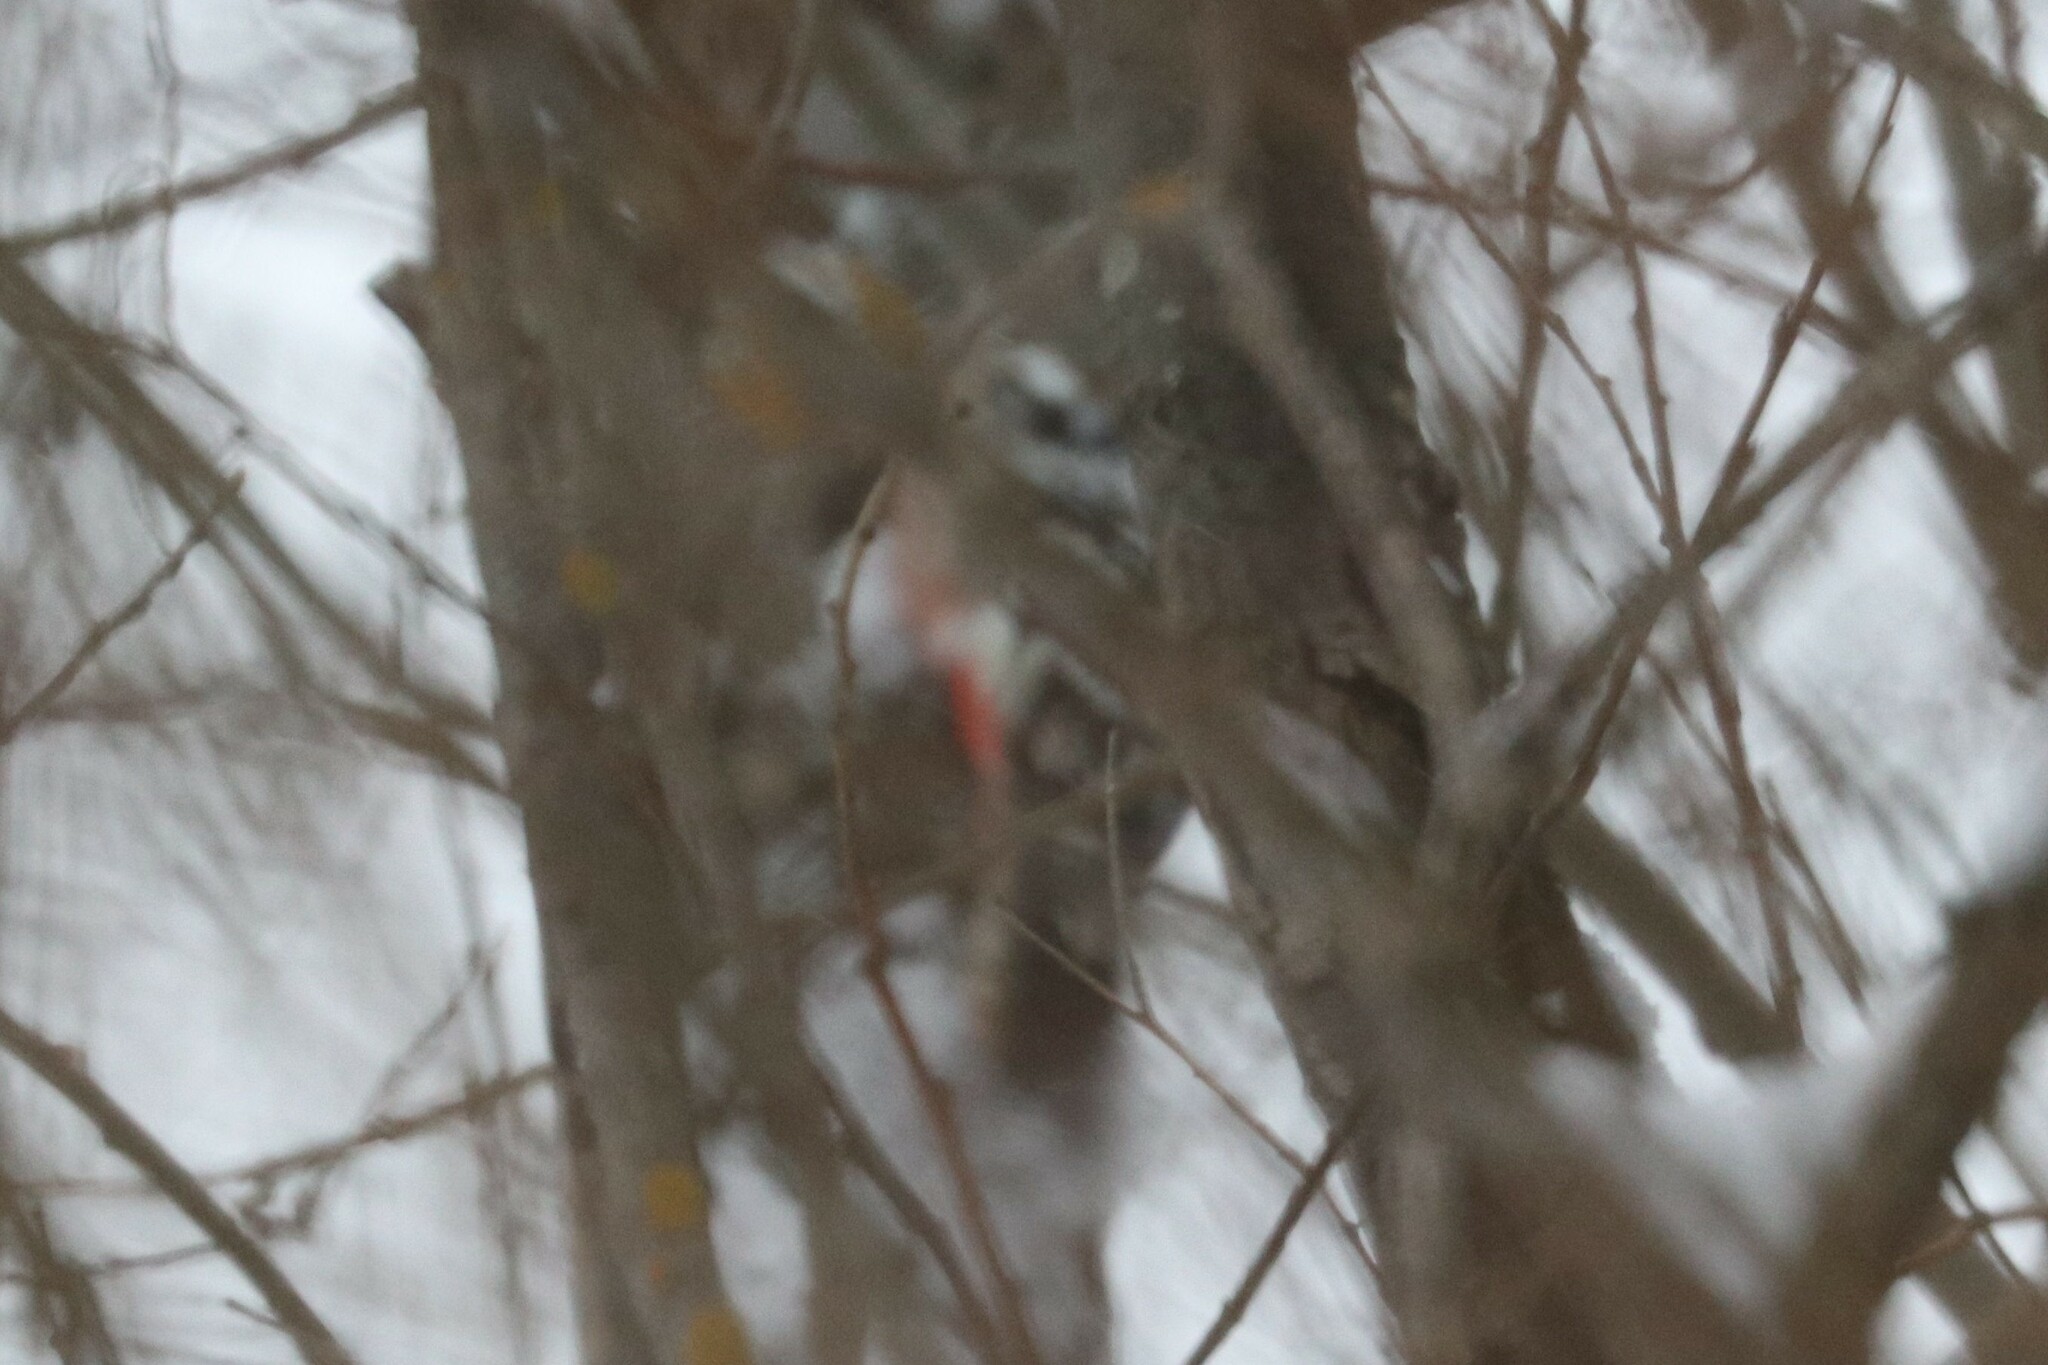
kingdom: Animalia
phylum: Chordata
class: Aves
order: Piciformes
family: Picidae
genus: Dendrocopos
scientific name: Dendrocopos leucotos
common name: White-backed woodpecker
